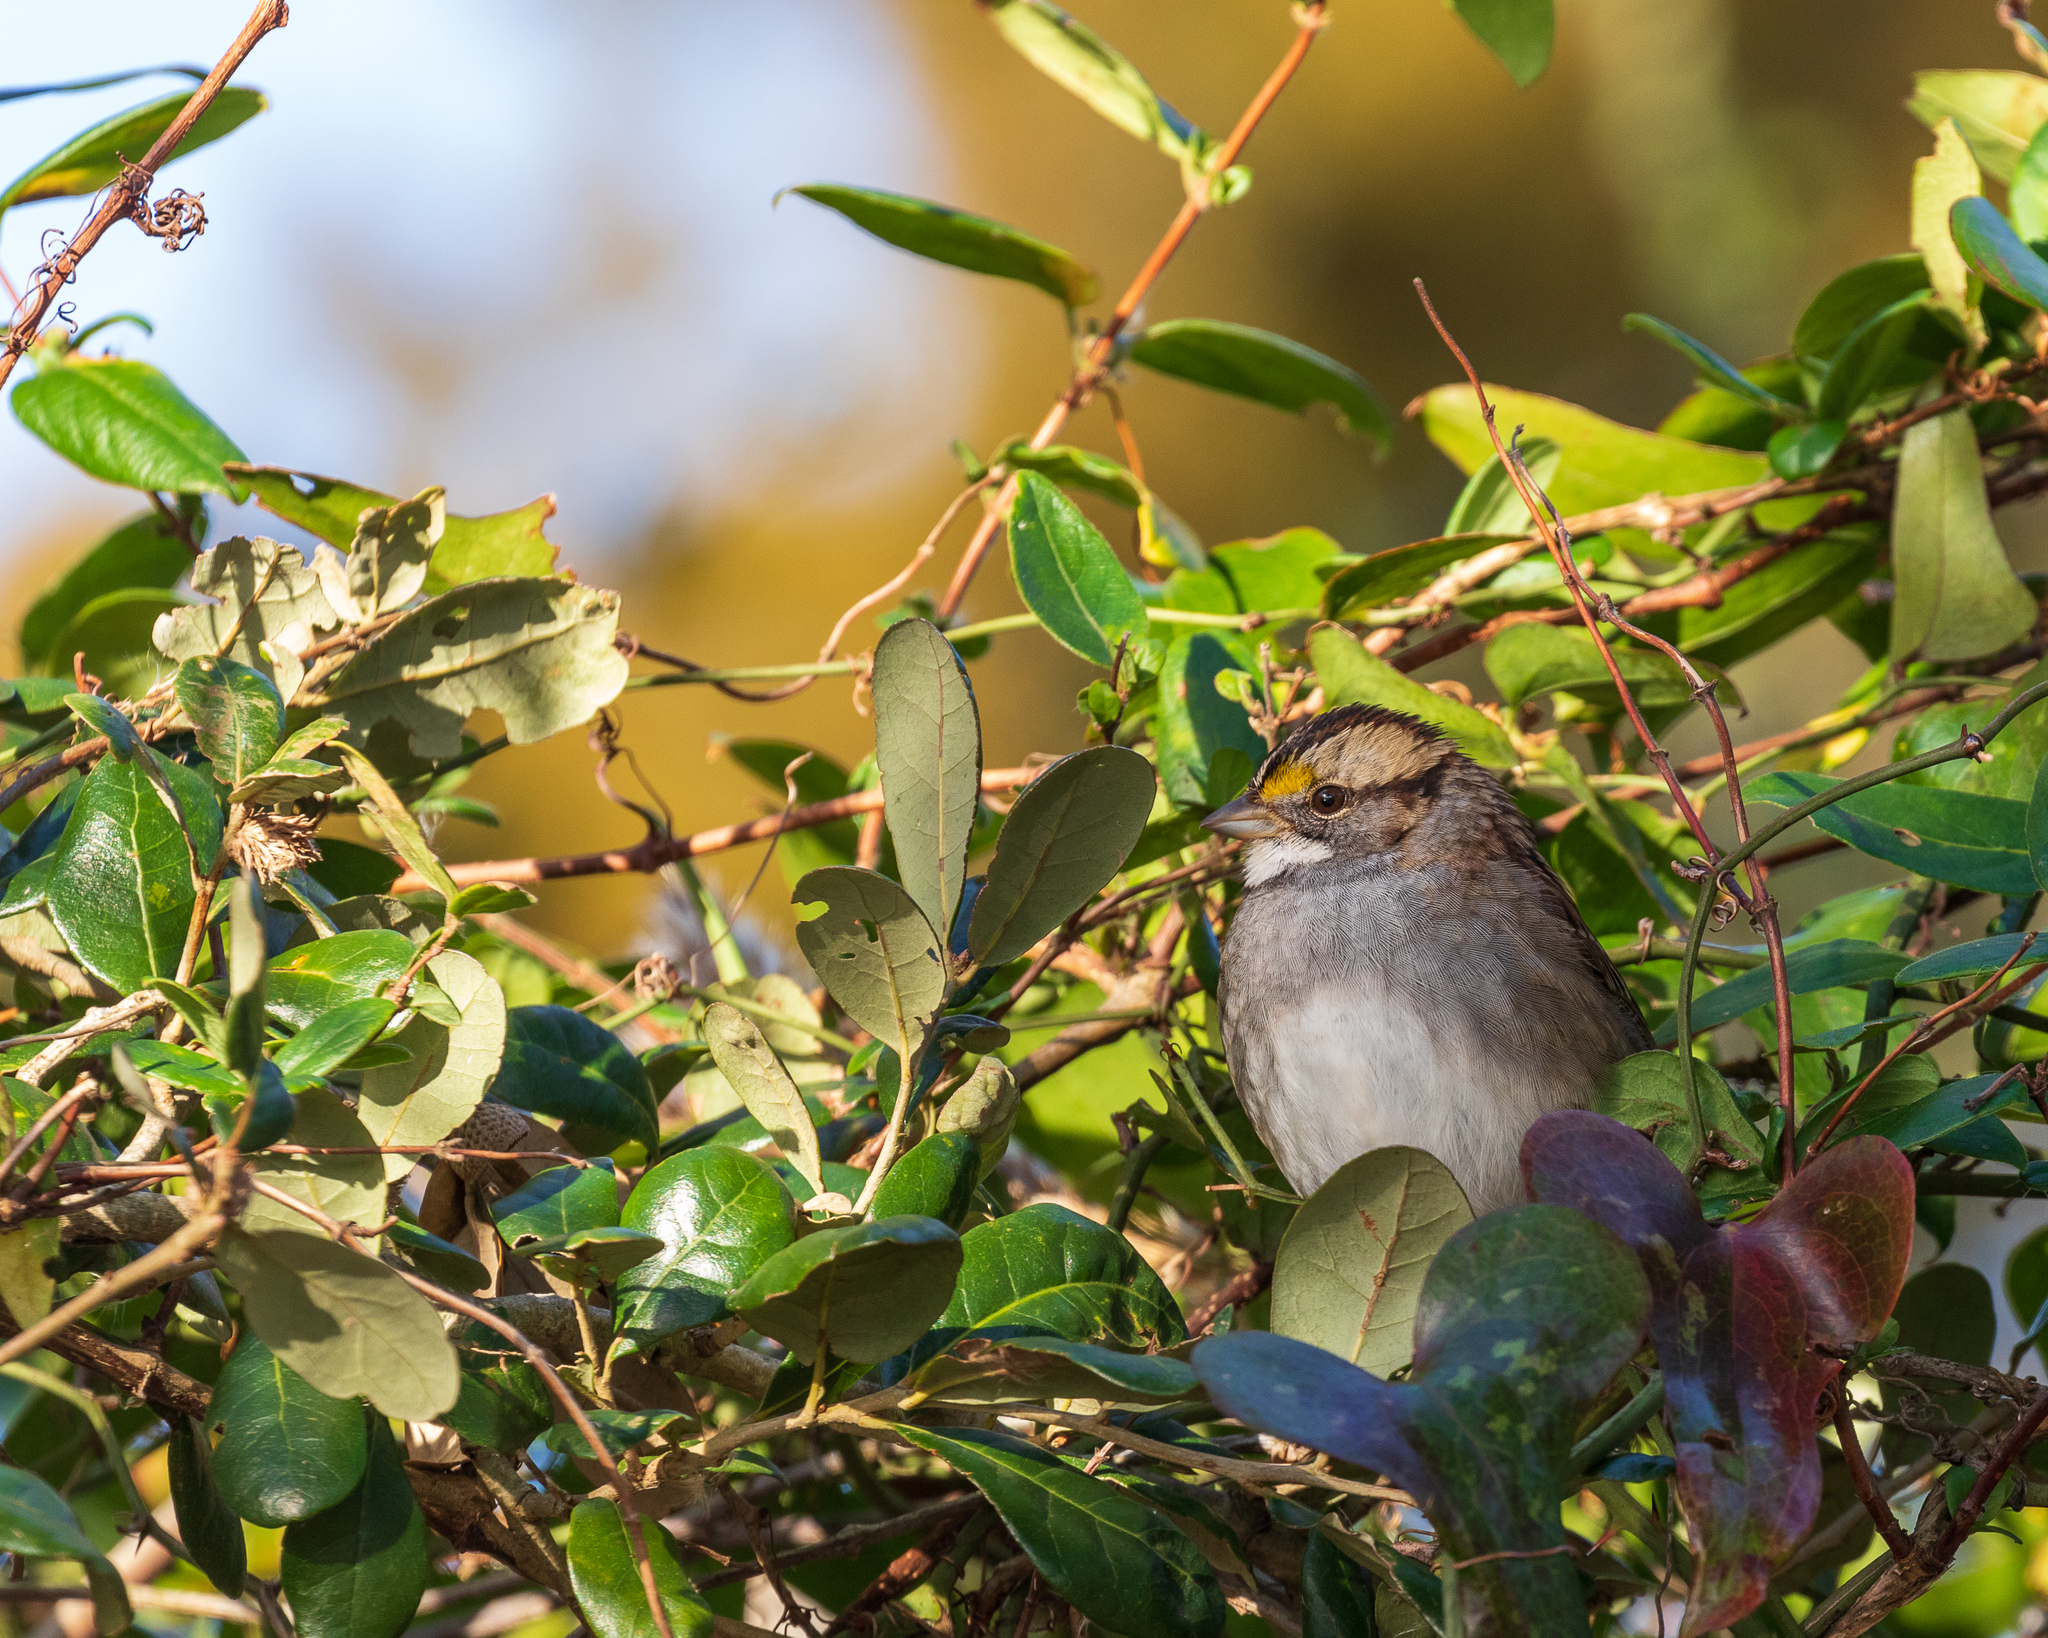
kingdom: Animalia
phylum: Chordata
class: Aves
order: Passeriformes
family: Passerellidae
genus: Zonotrichia
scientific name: Zonotrichia albicollis
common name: White-throated sparrow
